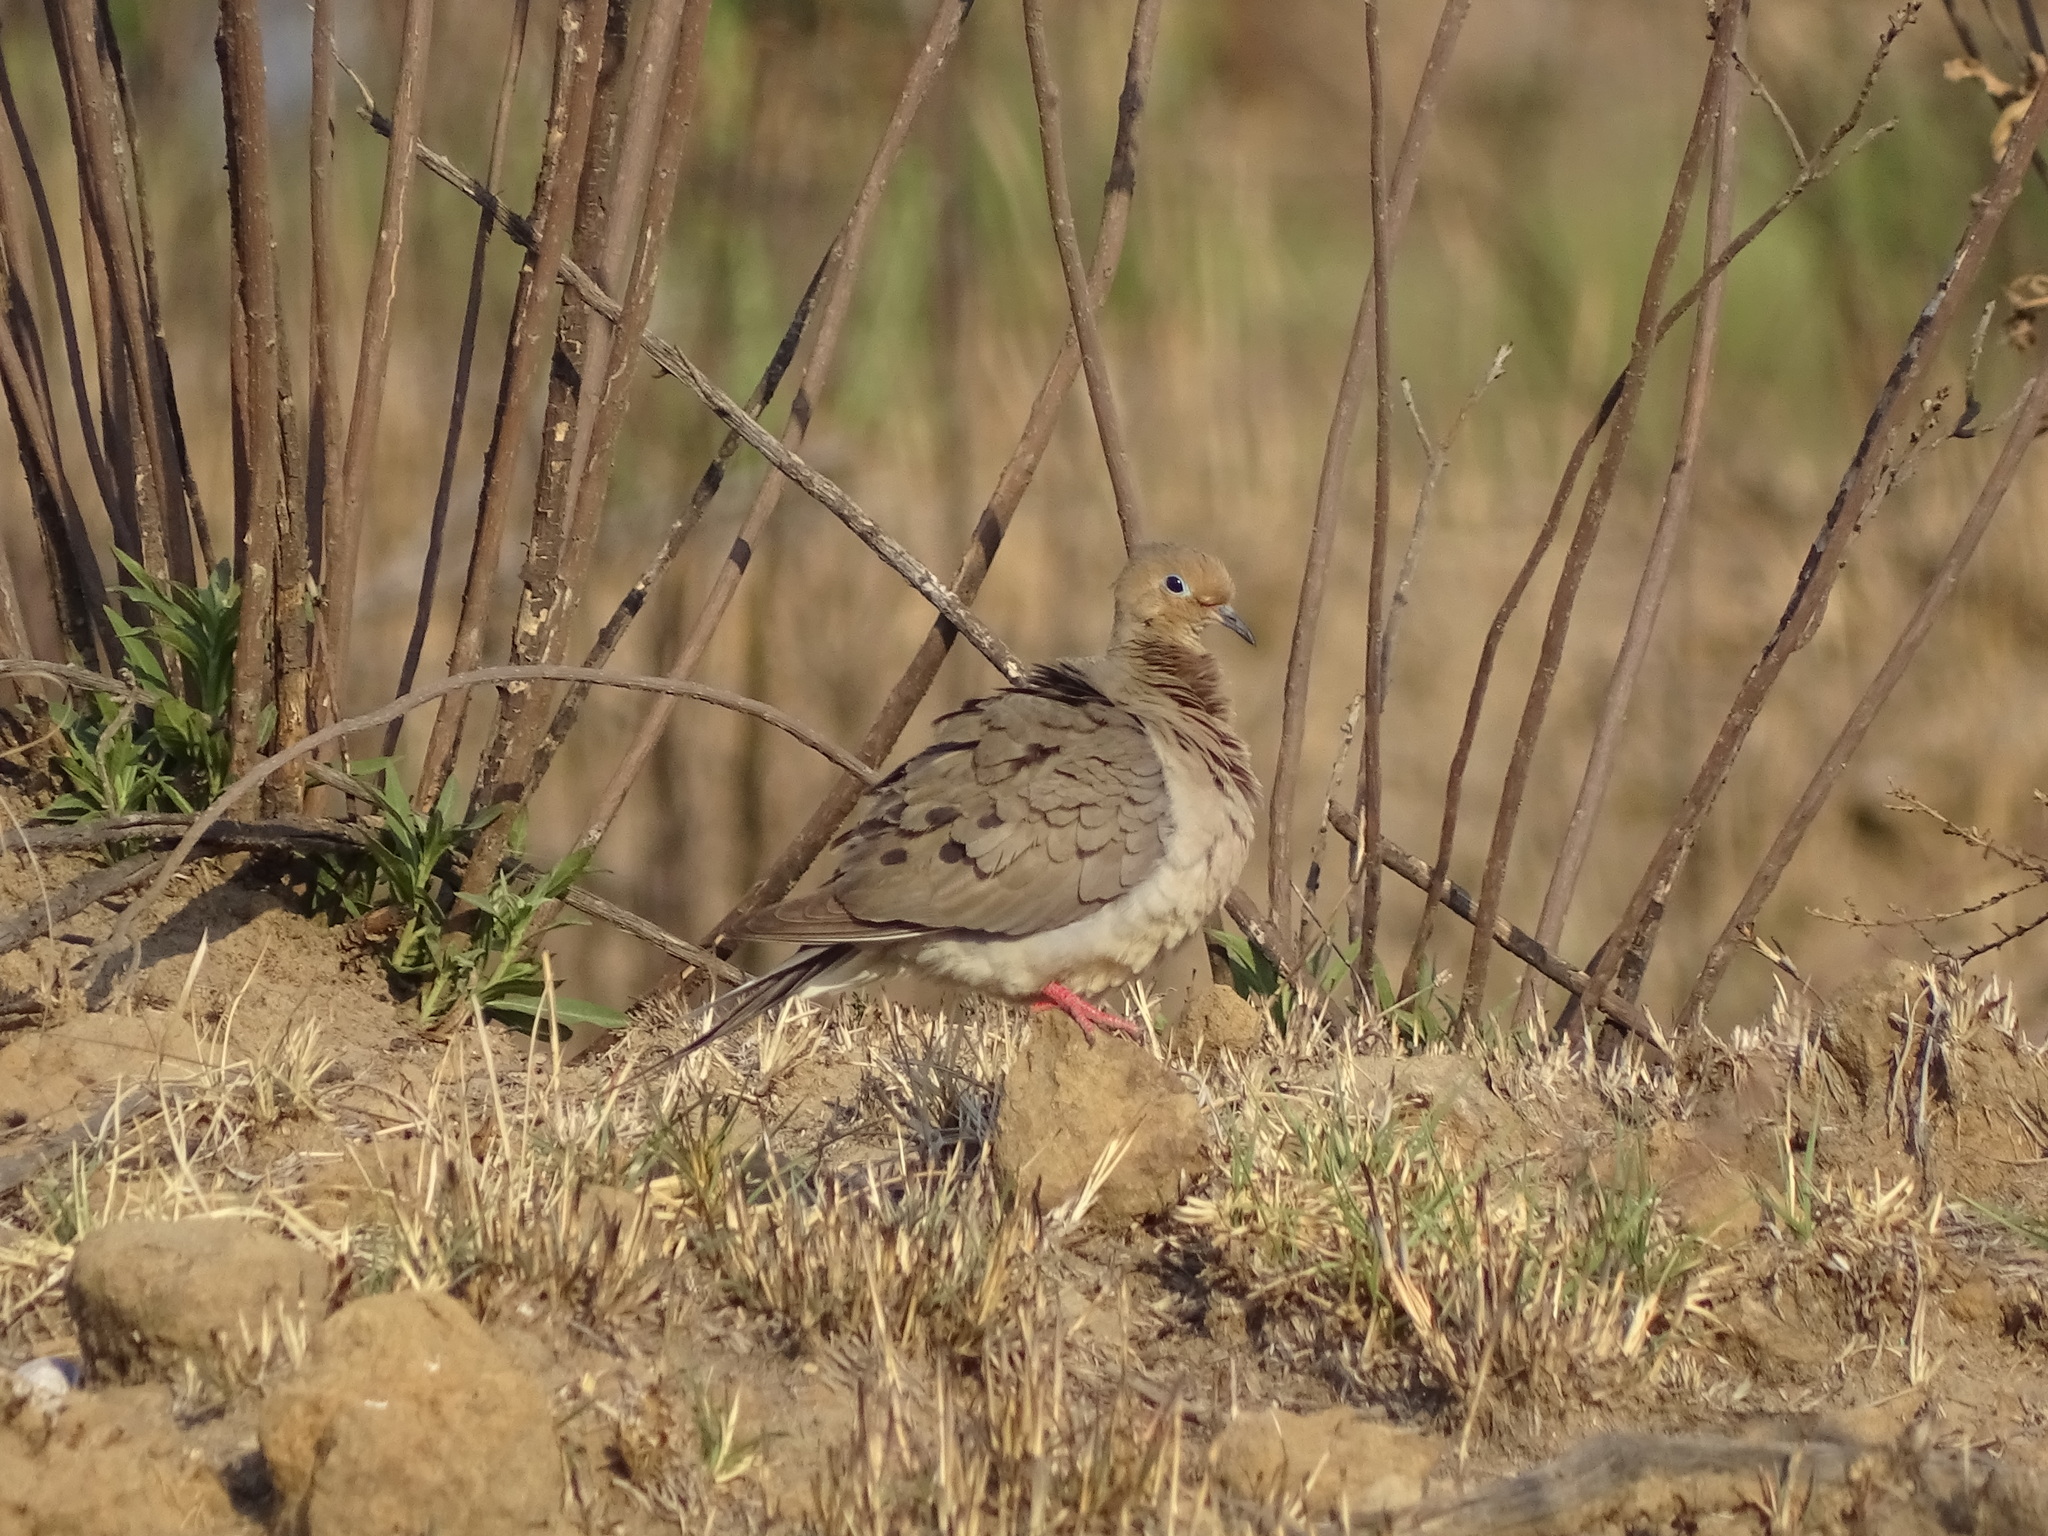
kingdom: Animalia
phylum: Chordata
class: Aves
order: Columbiformes
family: Columbidae
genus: Zenaida
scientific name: Zenaida macroura
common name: Mourning dove
